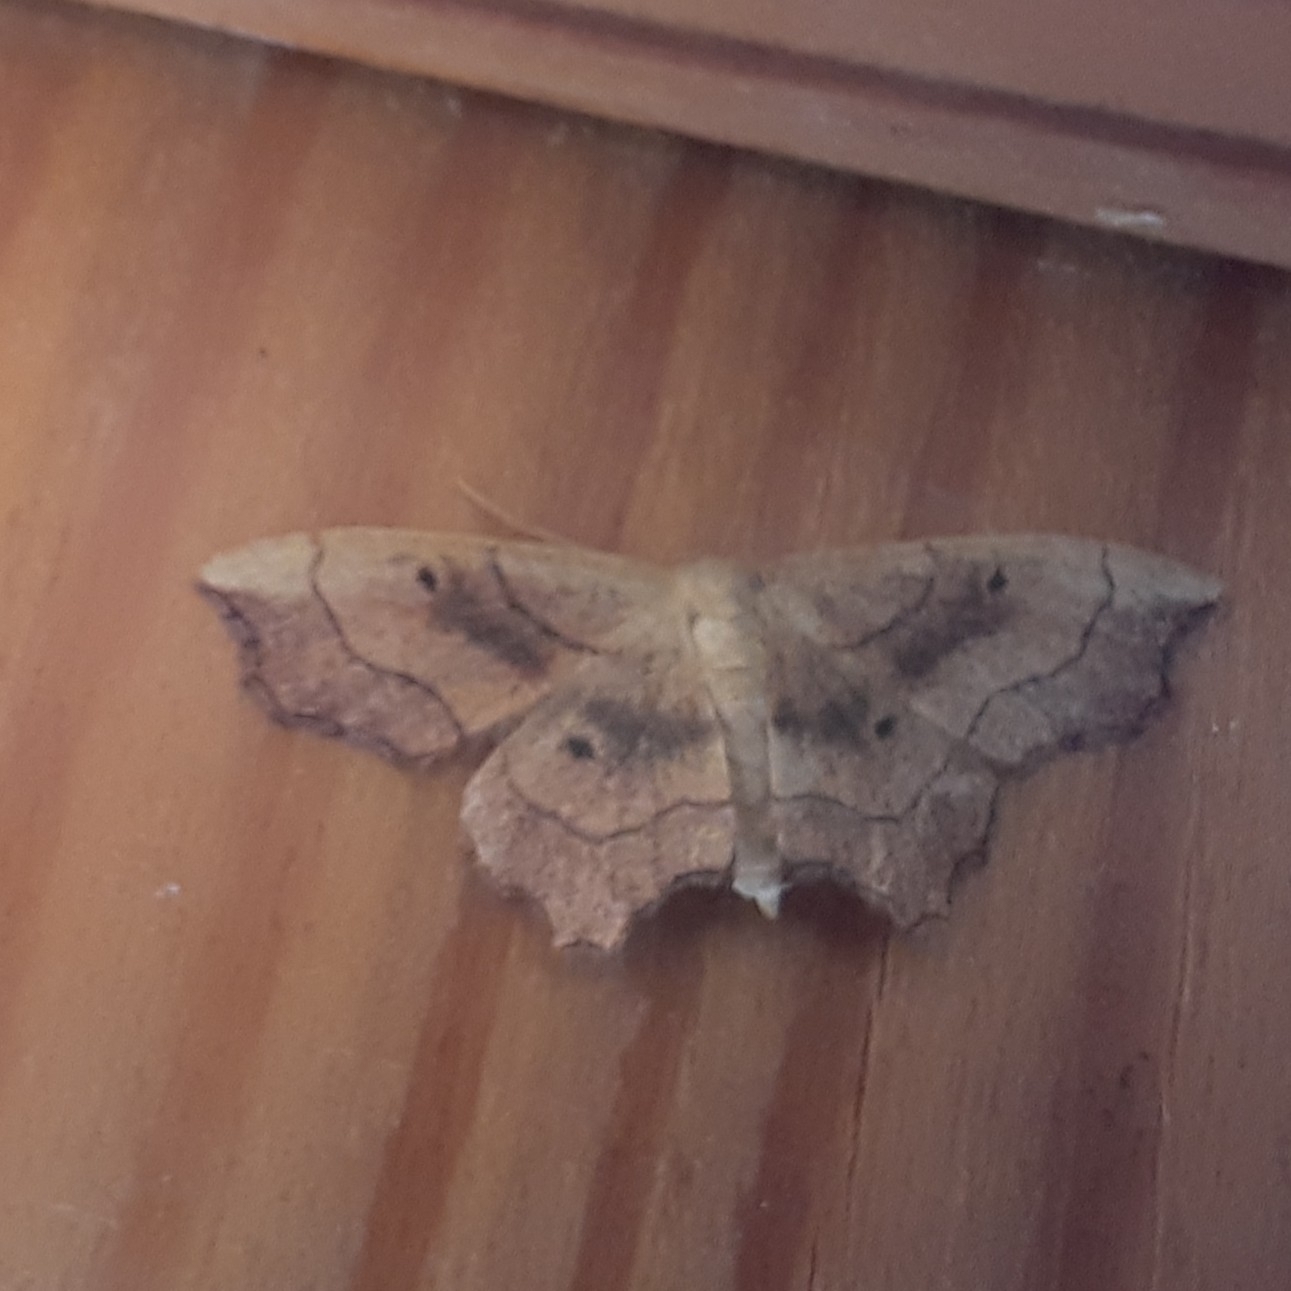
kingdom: Animalia
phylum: Arthropoda
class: Insecta
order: Lepidoptera
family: Geometridae
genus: Idaea
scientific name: Idaea emarginata
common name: Small scallop
